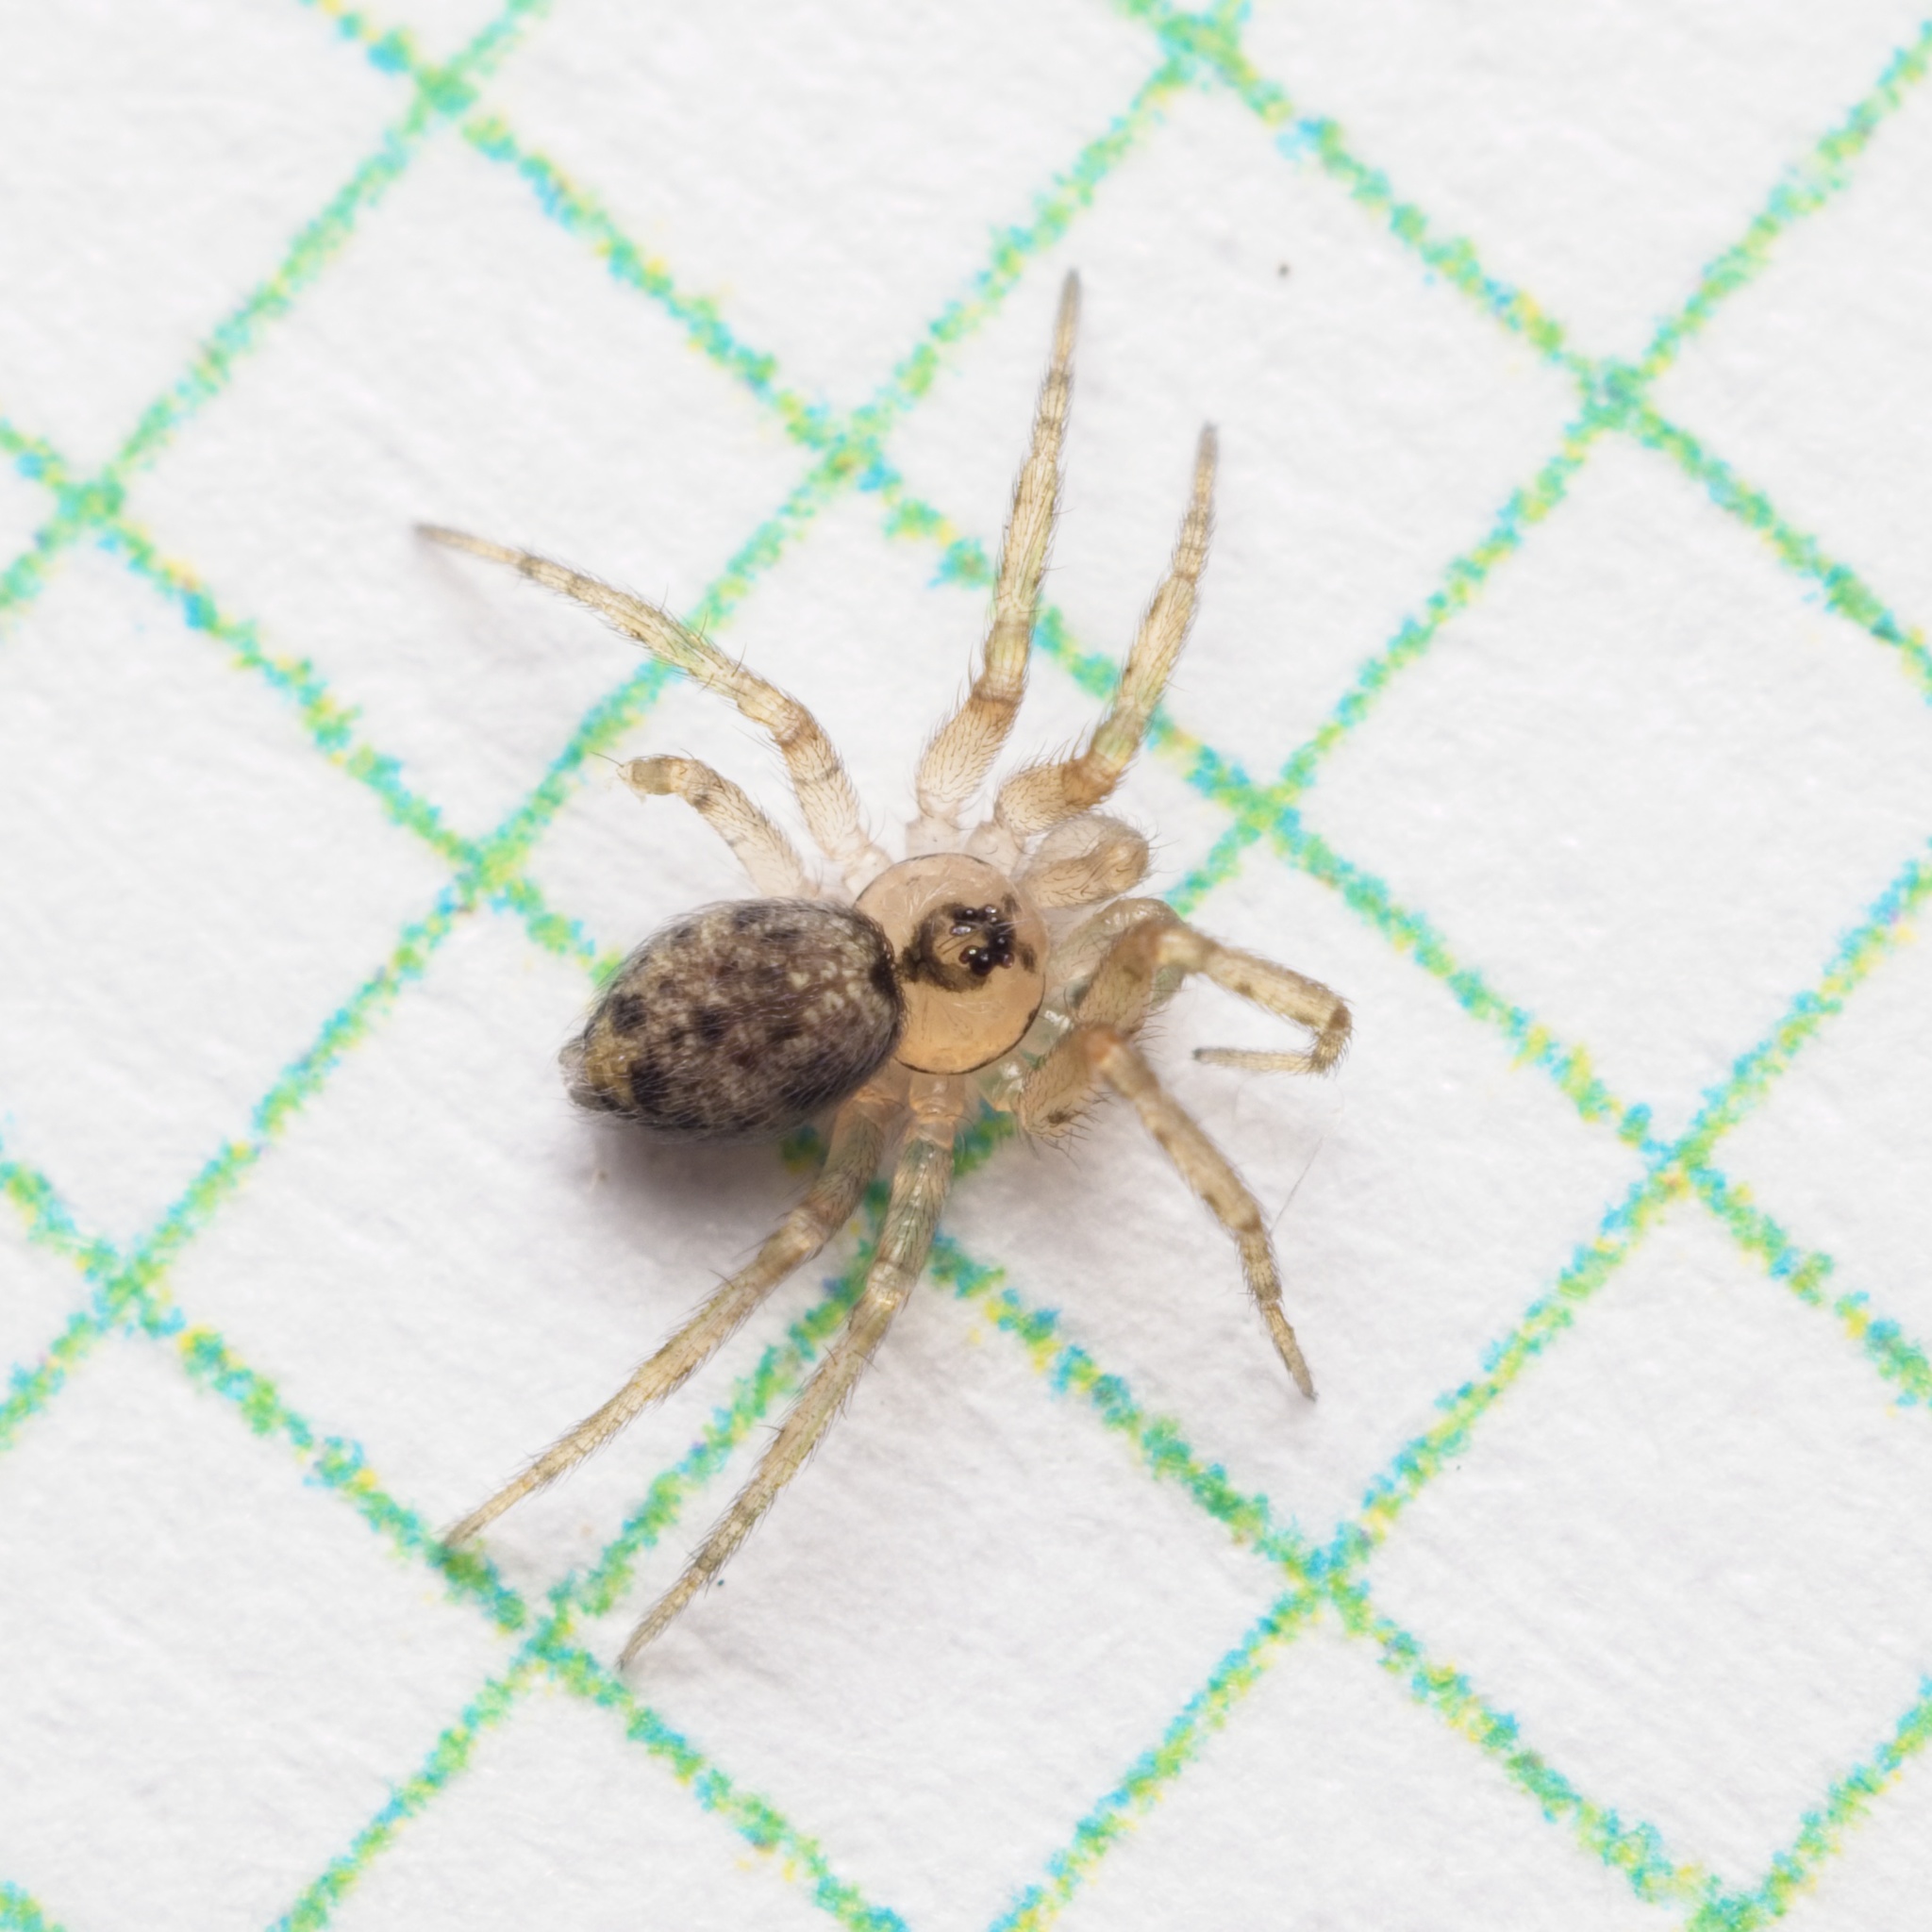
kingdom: Animalia
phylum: Arthropoda
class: Arachnida
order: Araneae
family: Oecobiidae
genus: Oecobius
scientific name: Oecobius navus
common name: Flatmesh weaver
